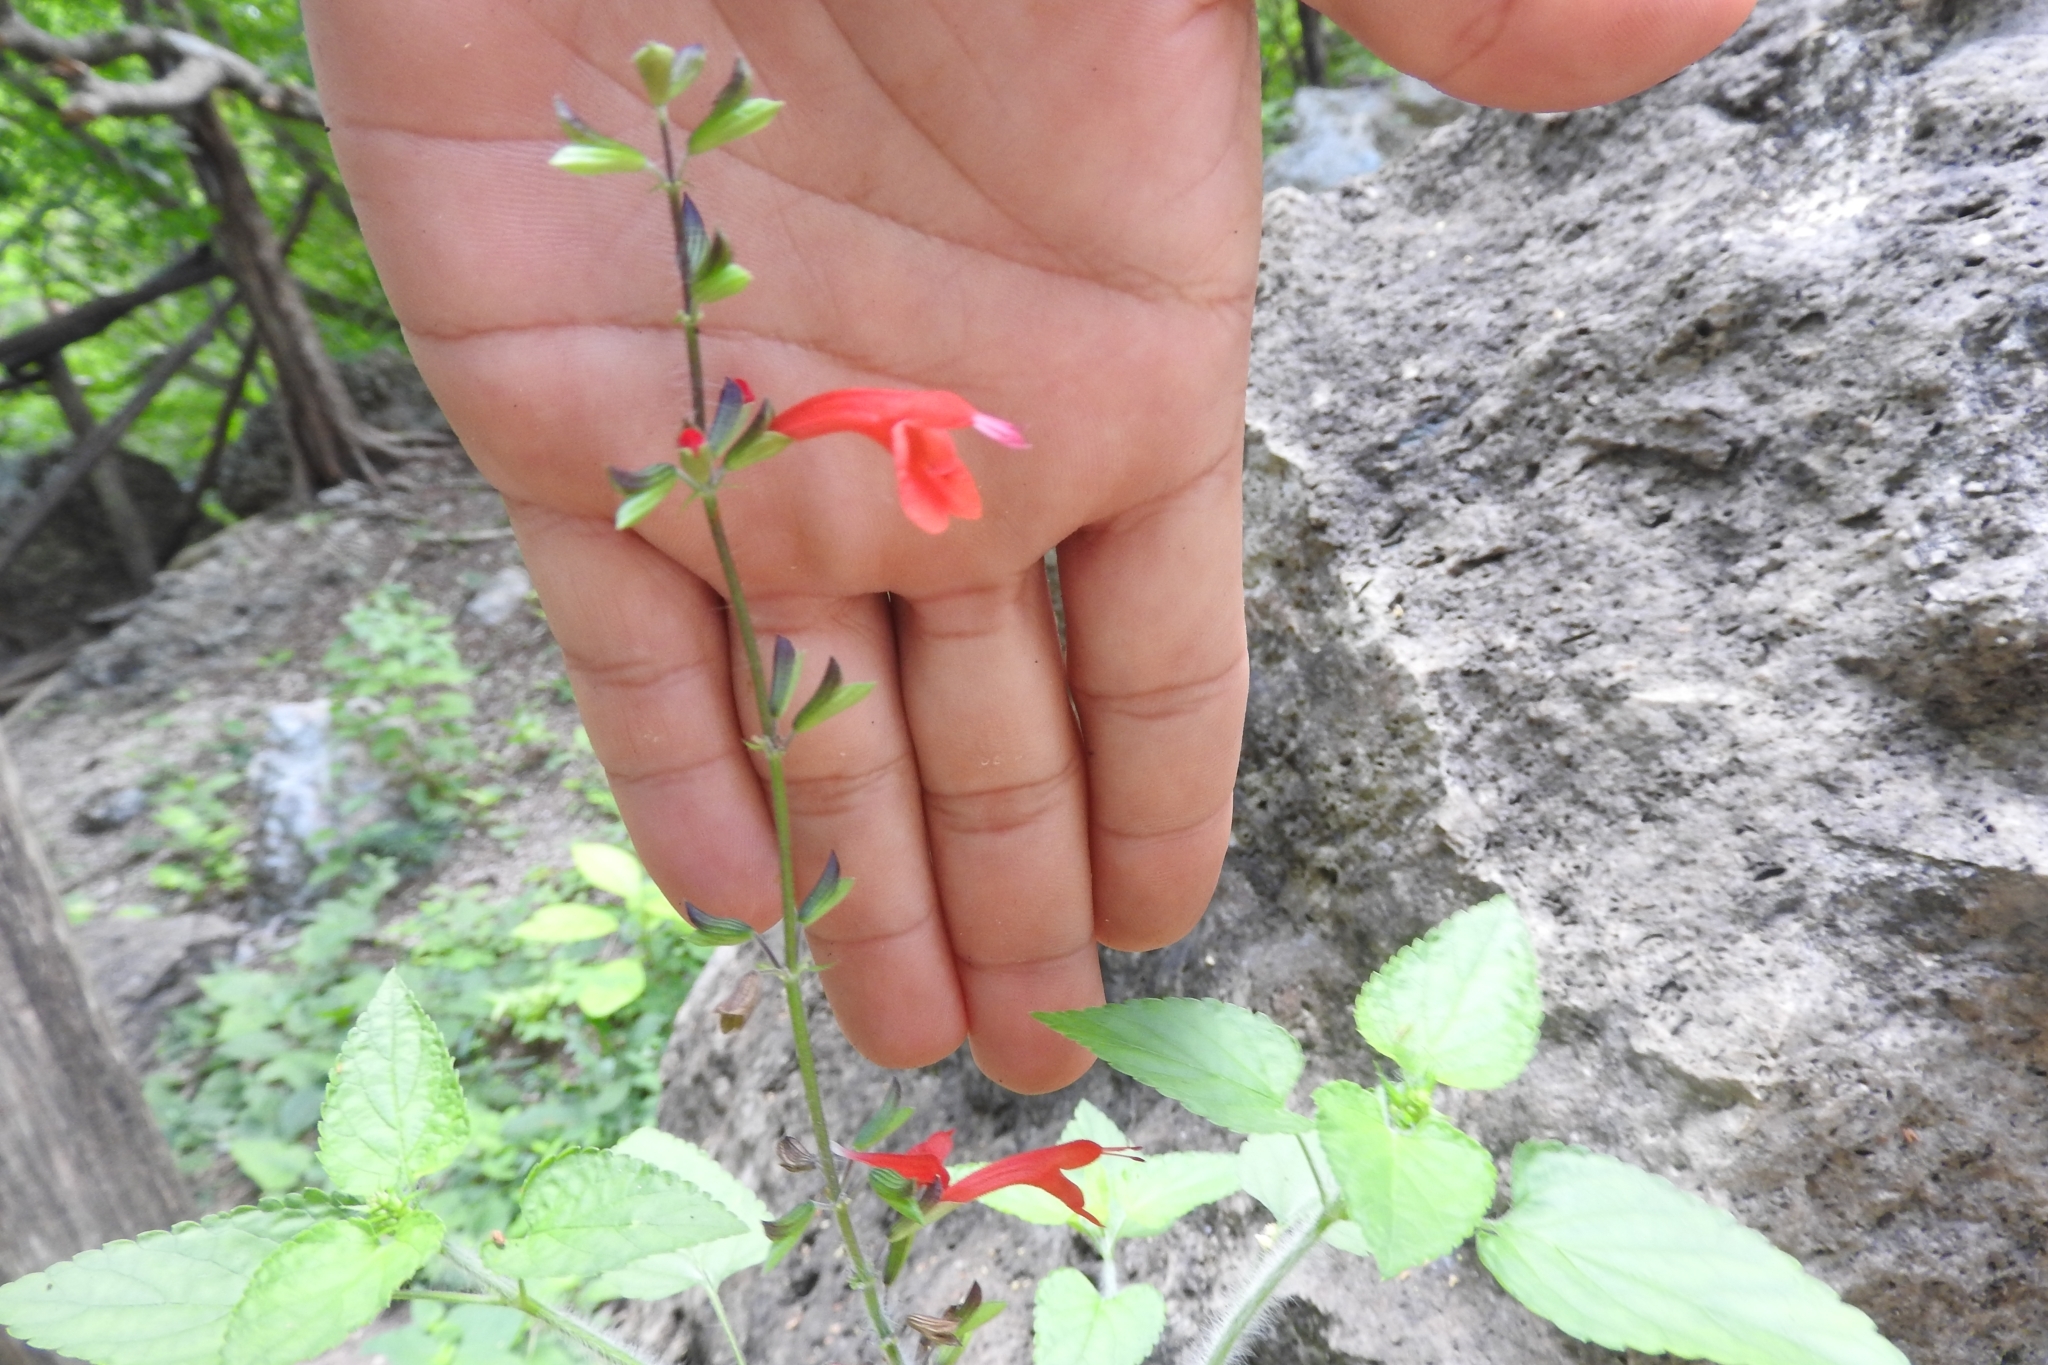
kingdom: Plantae
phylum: Tracheophyta
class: Magnoliopsida
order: Lamiales
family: Lamiaceae
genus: Salvia
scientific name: Salvia coccinea
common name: Blood sage
